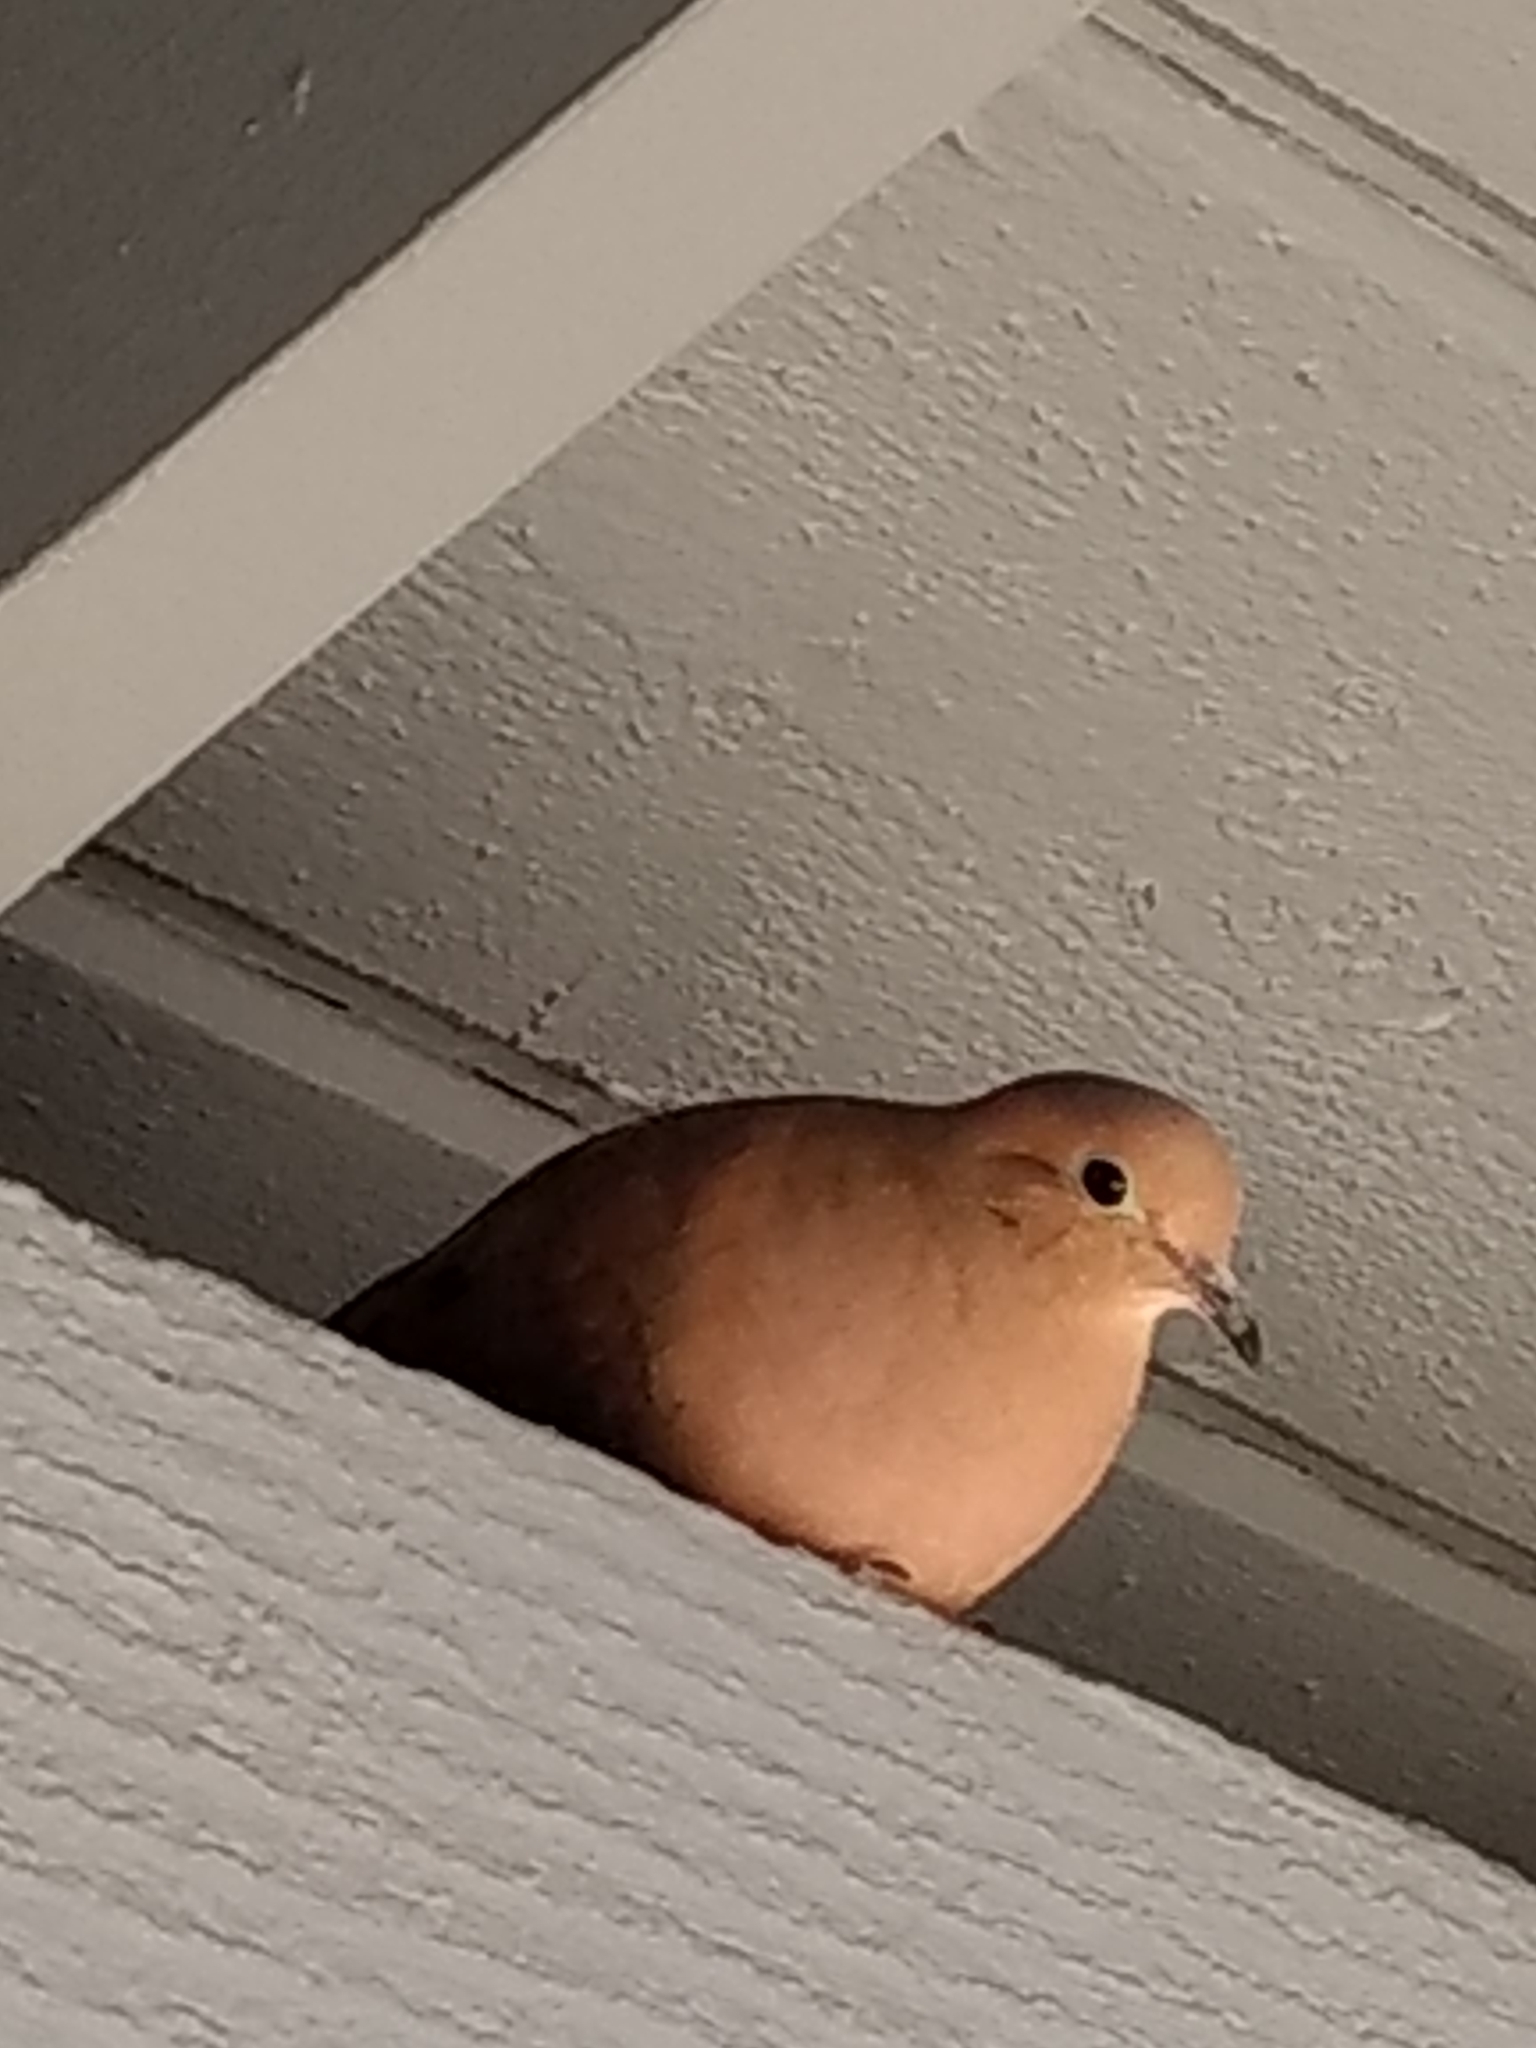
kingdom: Animalia
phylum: Chordata
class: Aves
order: Columbiformes
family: Columbidae
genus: Zenaida
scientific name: Zenaida macroura
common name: Mourning dove
